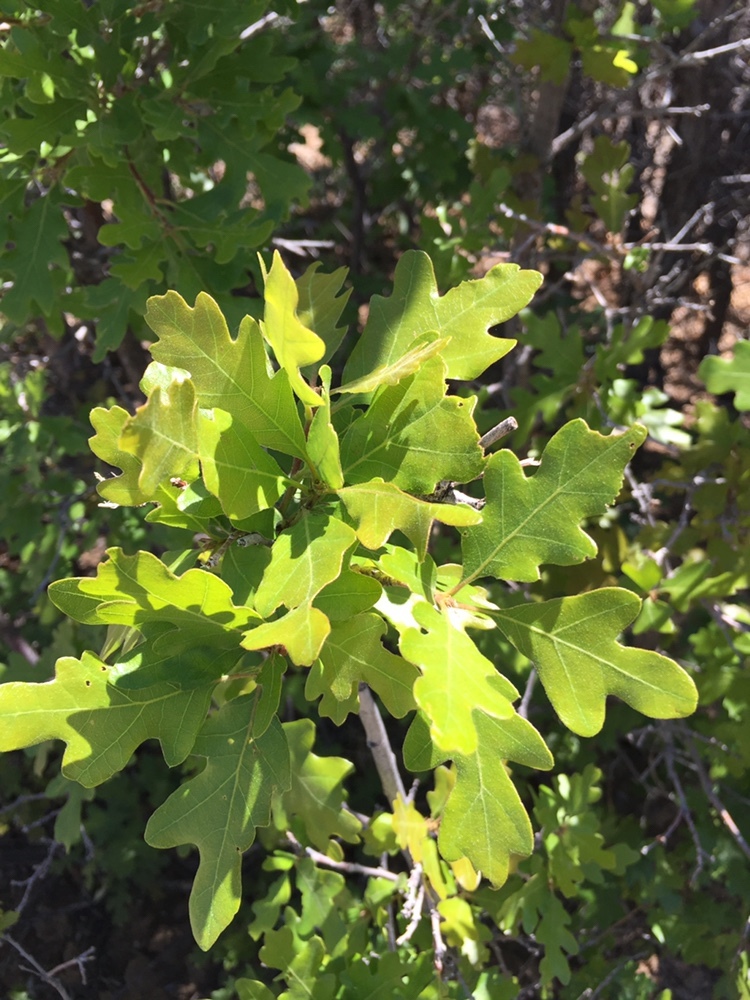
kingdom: Plantae
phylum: Tracheophyta
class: Magnoliopsida
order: Fagales
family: Fagaceae
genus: Quercus
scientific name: Quercus gambelii
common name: Gambel oak
